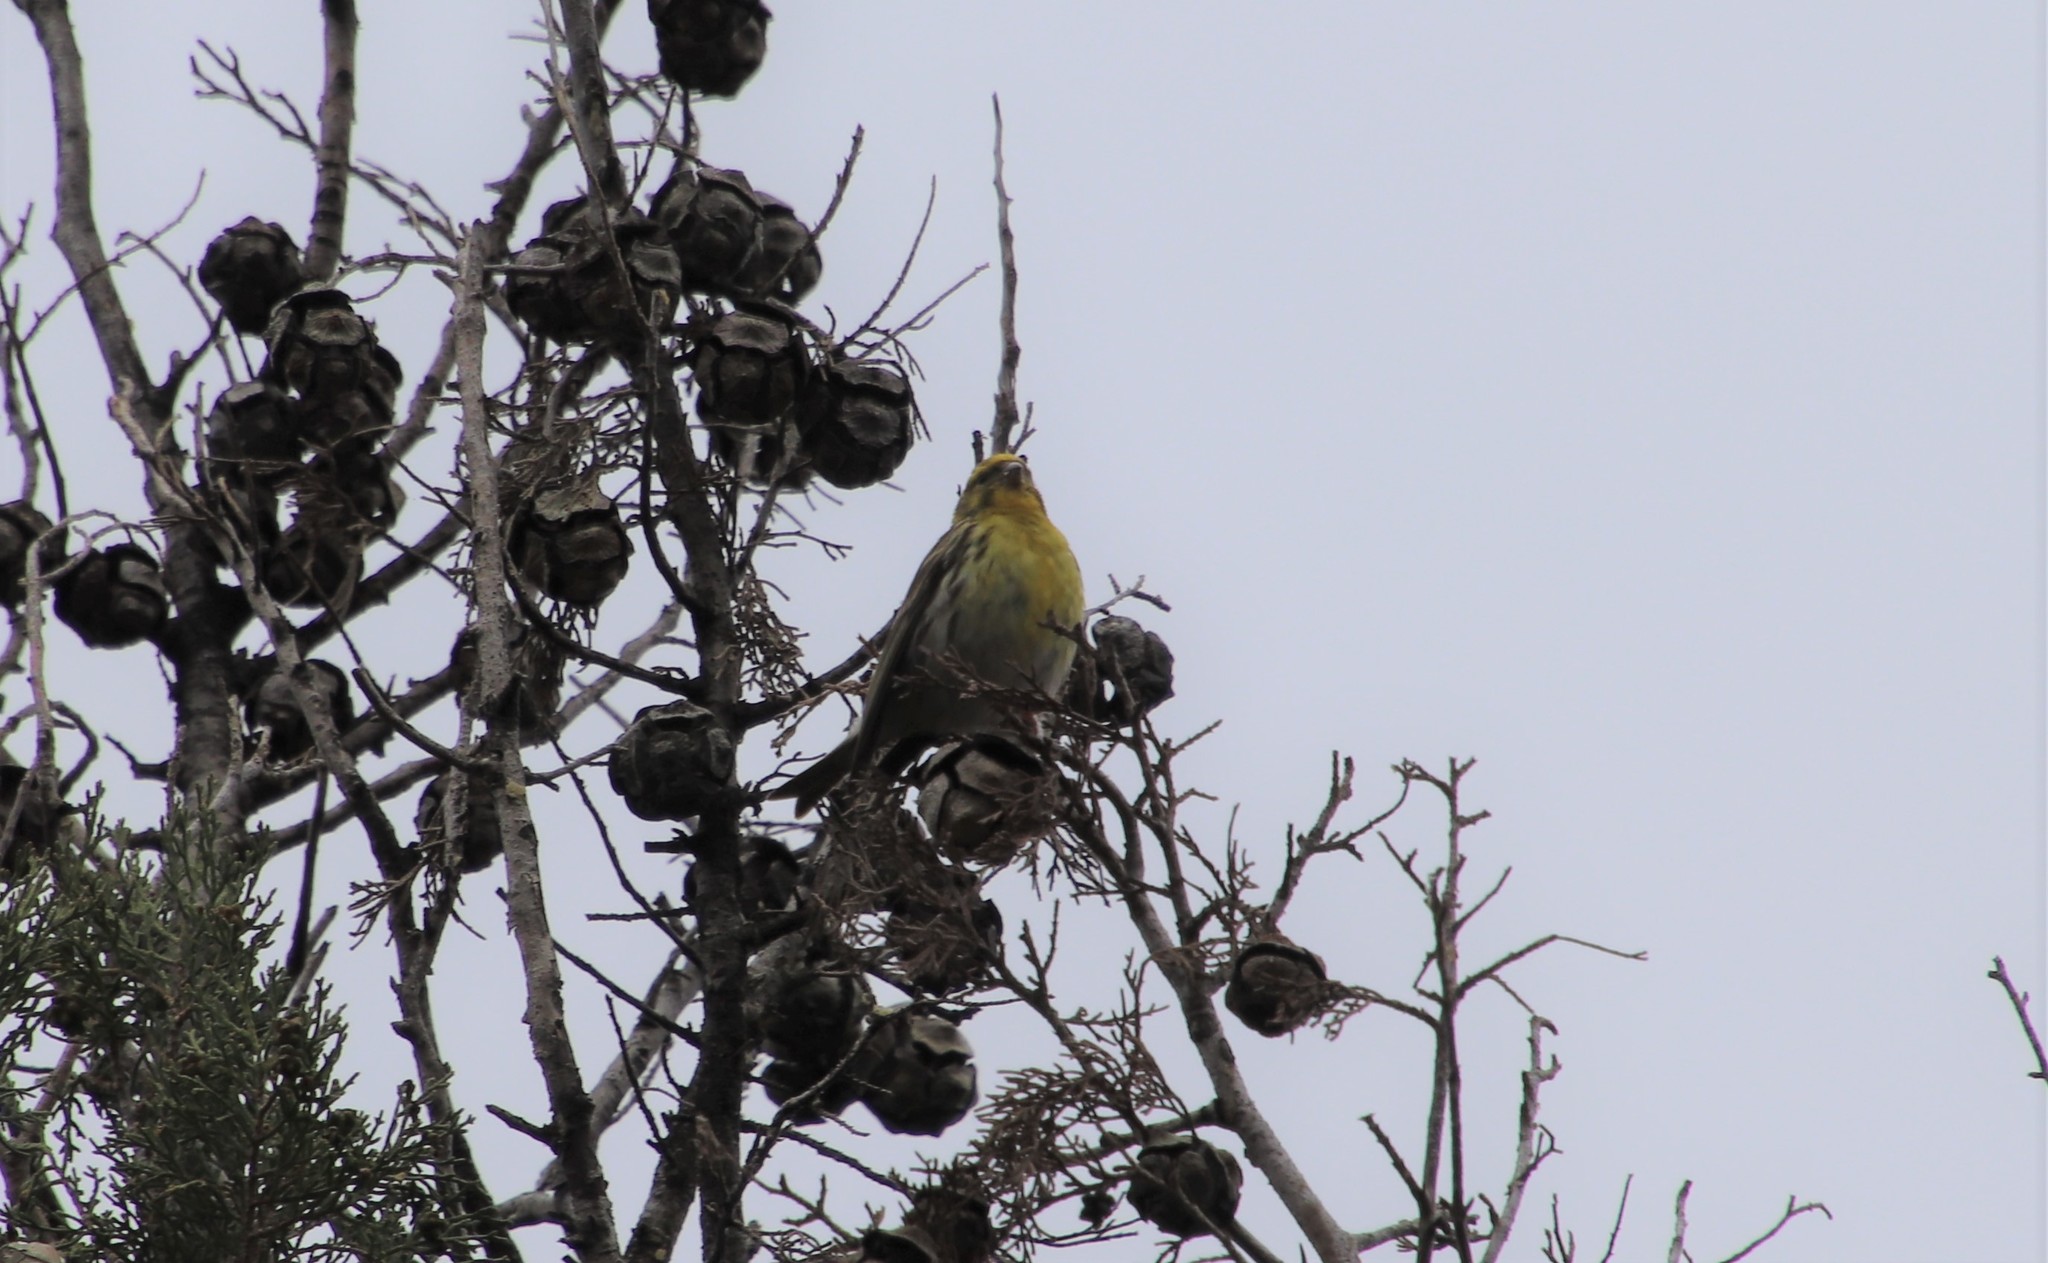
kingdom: Animalia
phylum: Chordata
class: Aves
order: Passeriformes
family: Fringillidae
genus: Serinus
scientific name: Serinus serinus
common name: European serin
